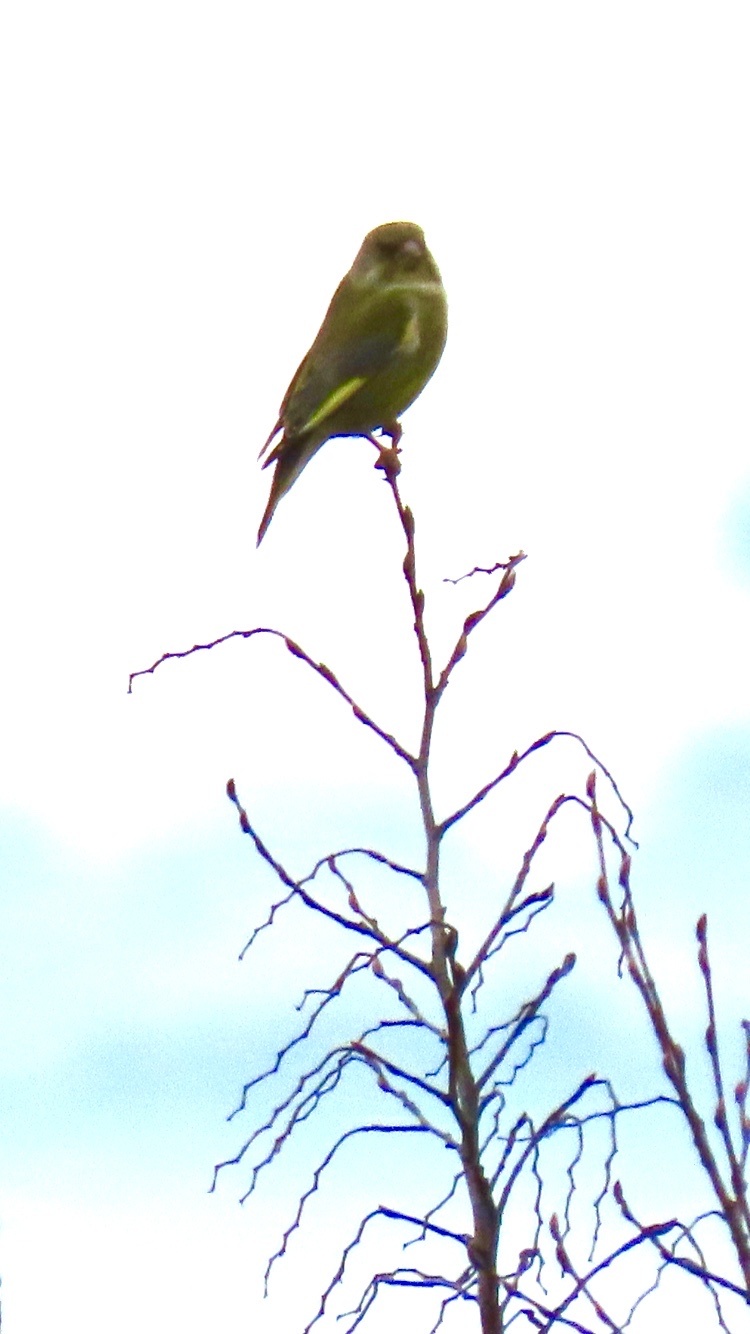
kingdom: Plantae
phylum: Tracheophyta
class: Liliopsida
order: Poales
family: Poaceae
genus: Chloris
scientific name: Chloris chloris
